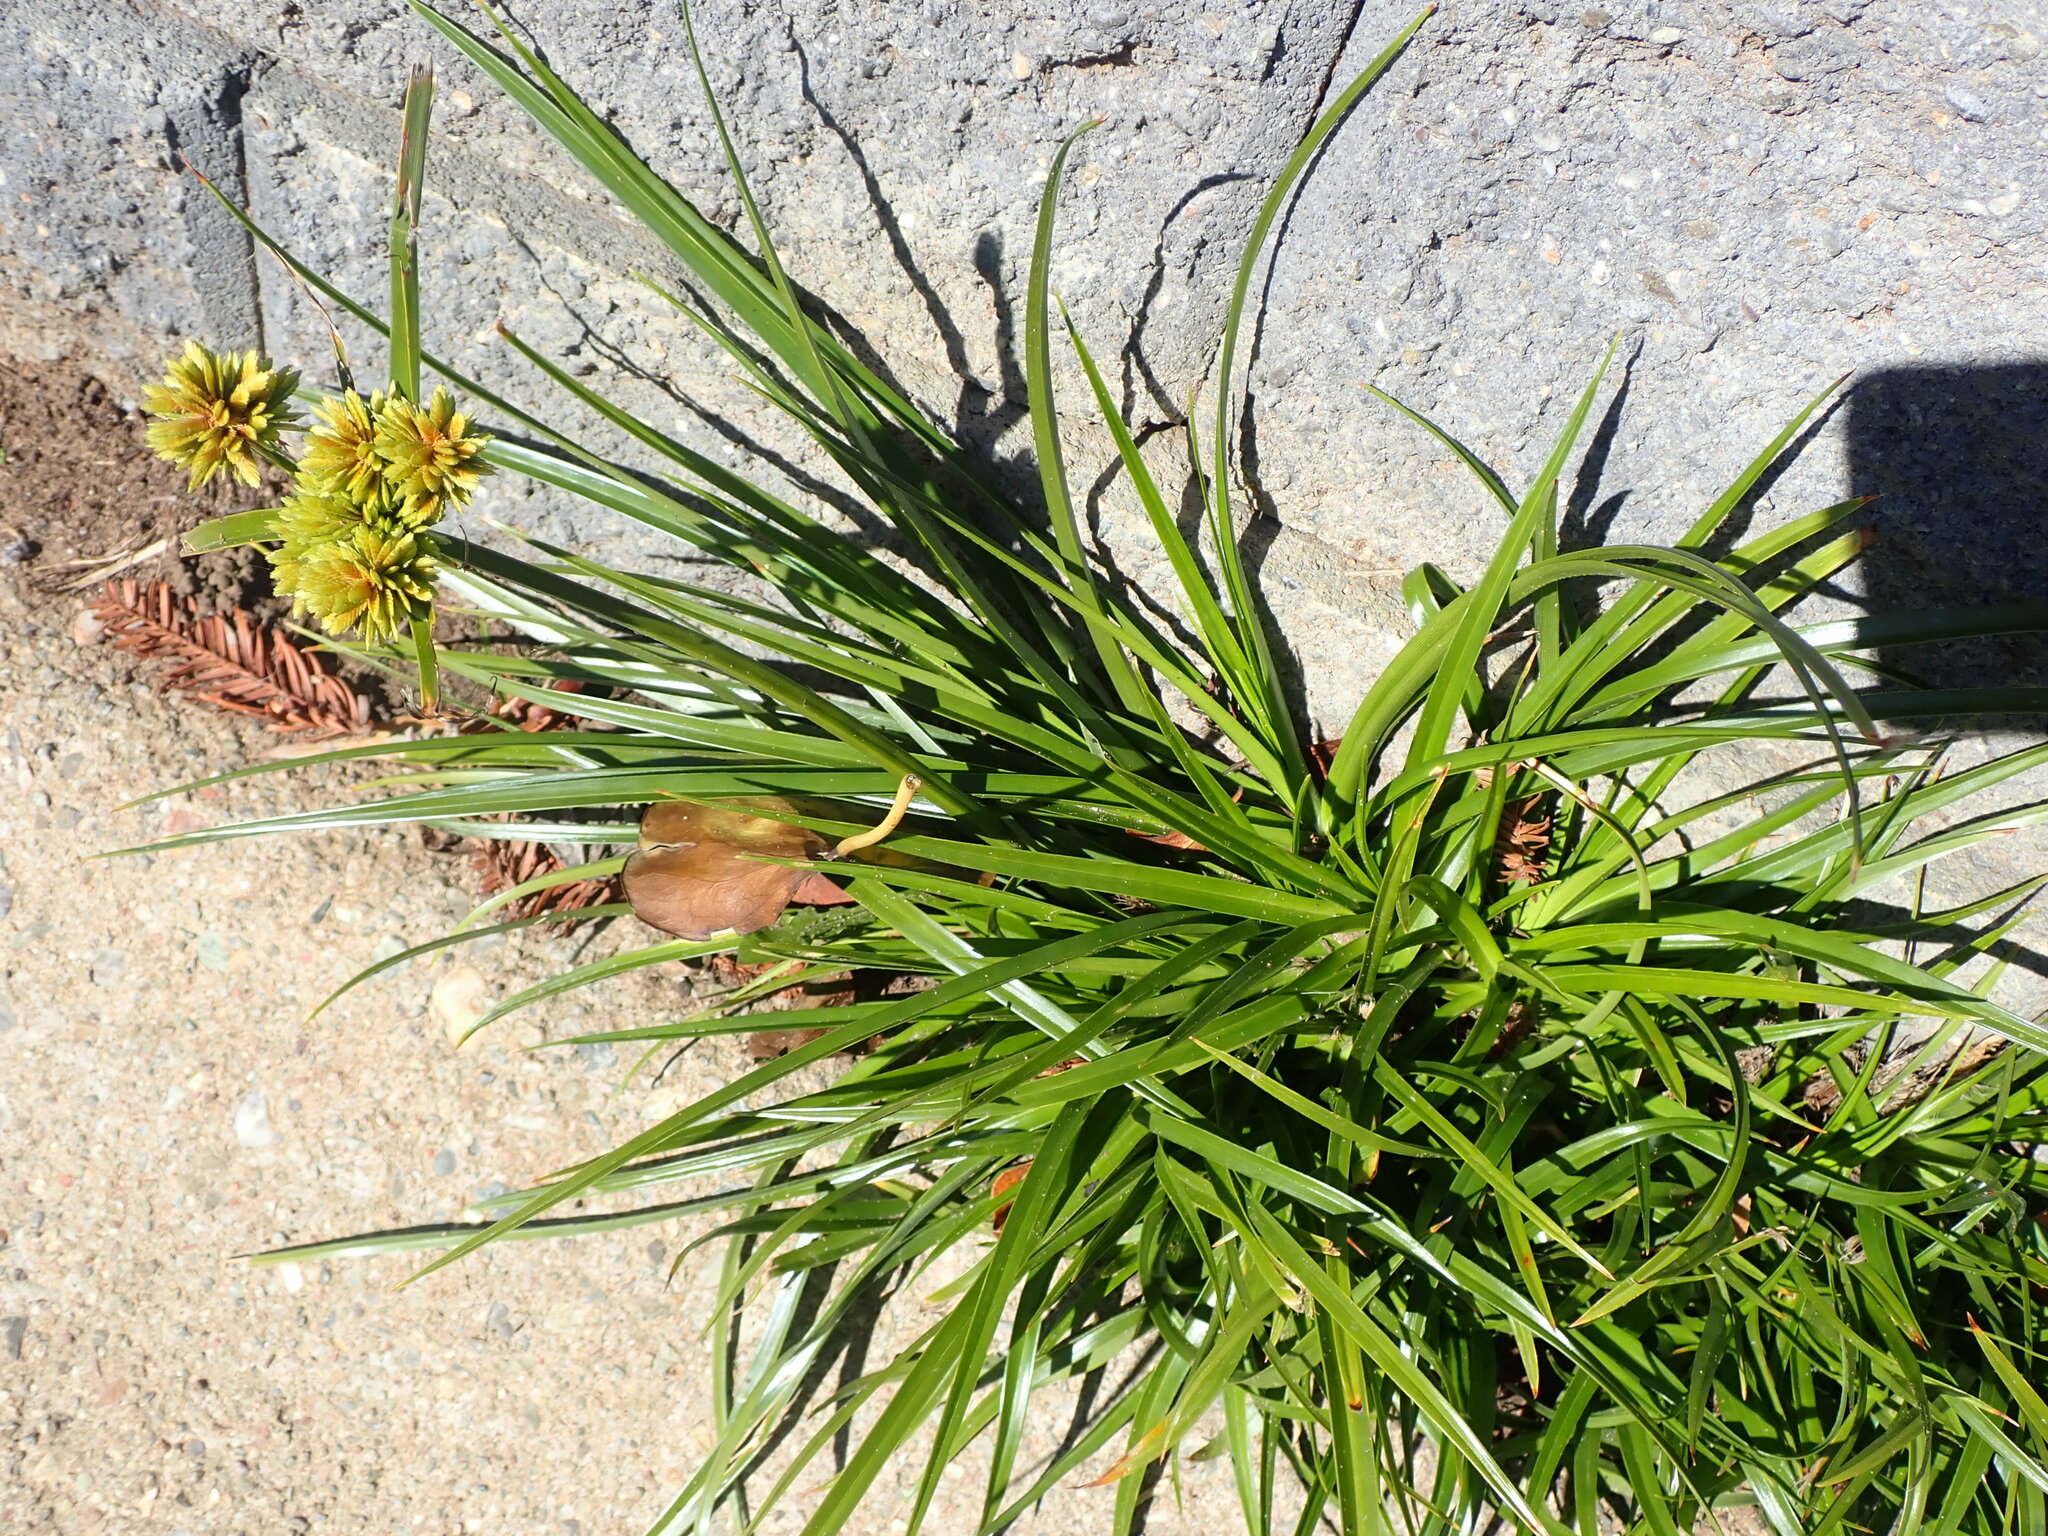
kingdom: Plantae
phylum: Tracheophyta
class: Liliopsida
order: Poales
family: Cyperaceae
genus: Cyperus
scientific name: Cyperus eragrostis
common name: Tall flatsedge
